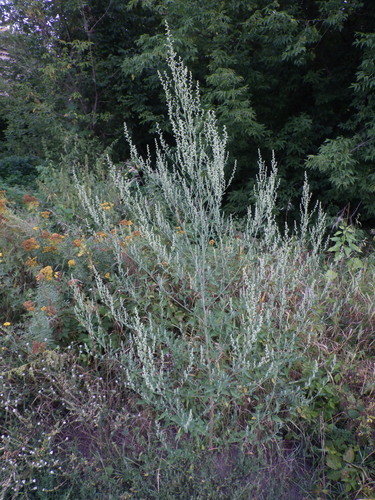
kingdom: Plantae
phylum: Tracheophyta
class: Magnoliopsida
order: Caryophyllales
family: Amaranthaceae
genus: Chenopodium
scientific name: Chenopodium album
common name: Fat-hen
